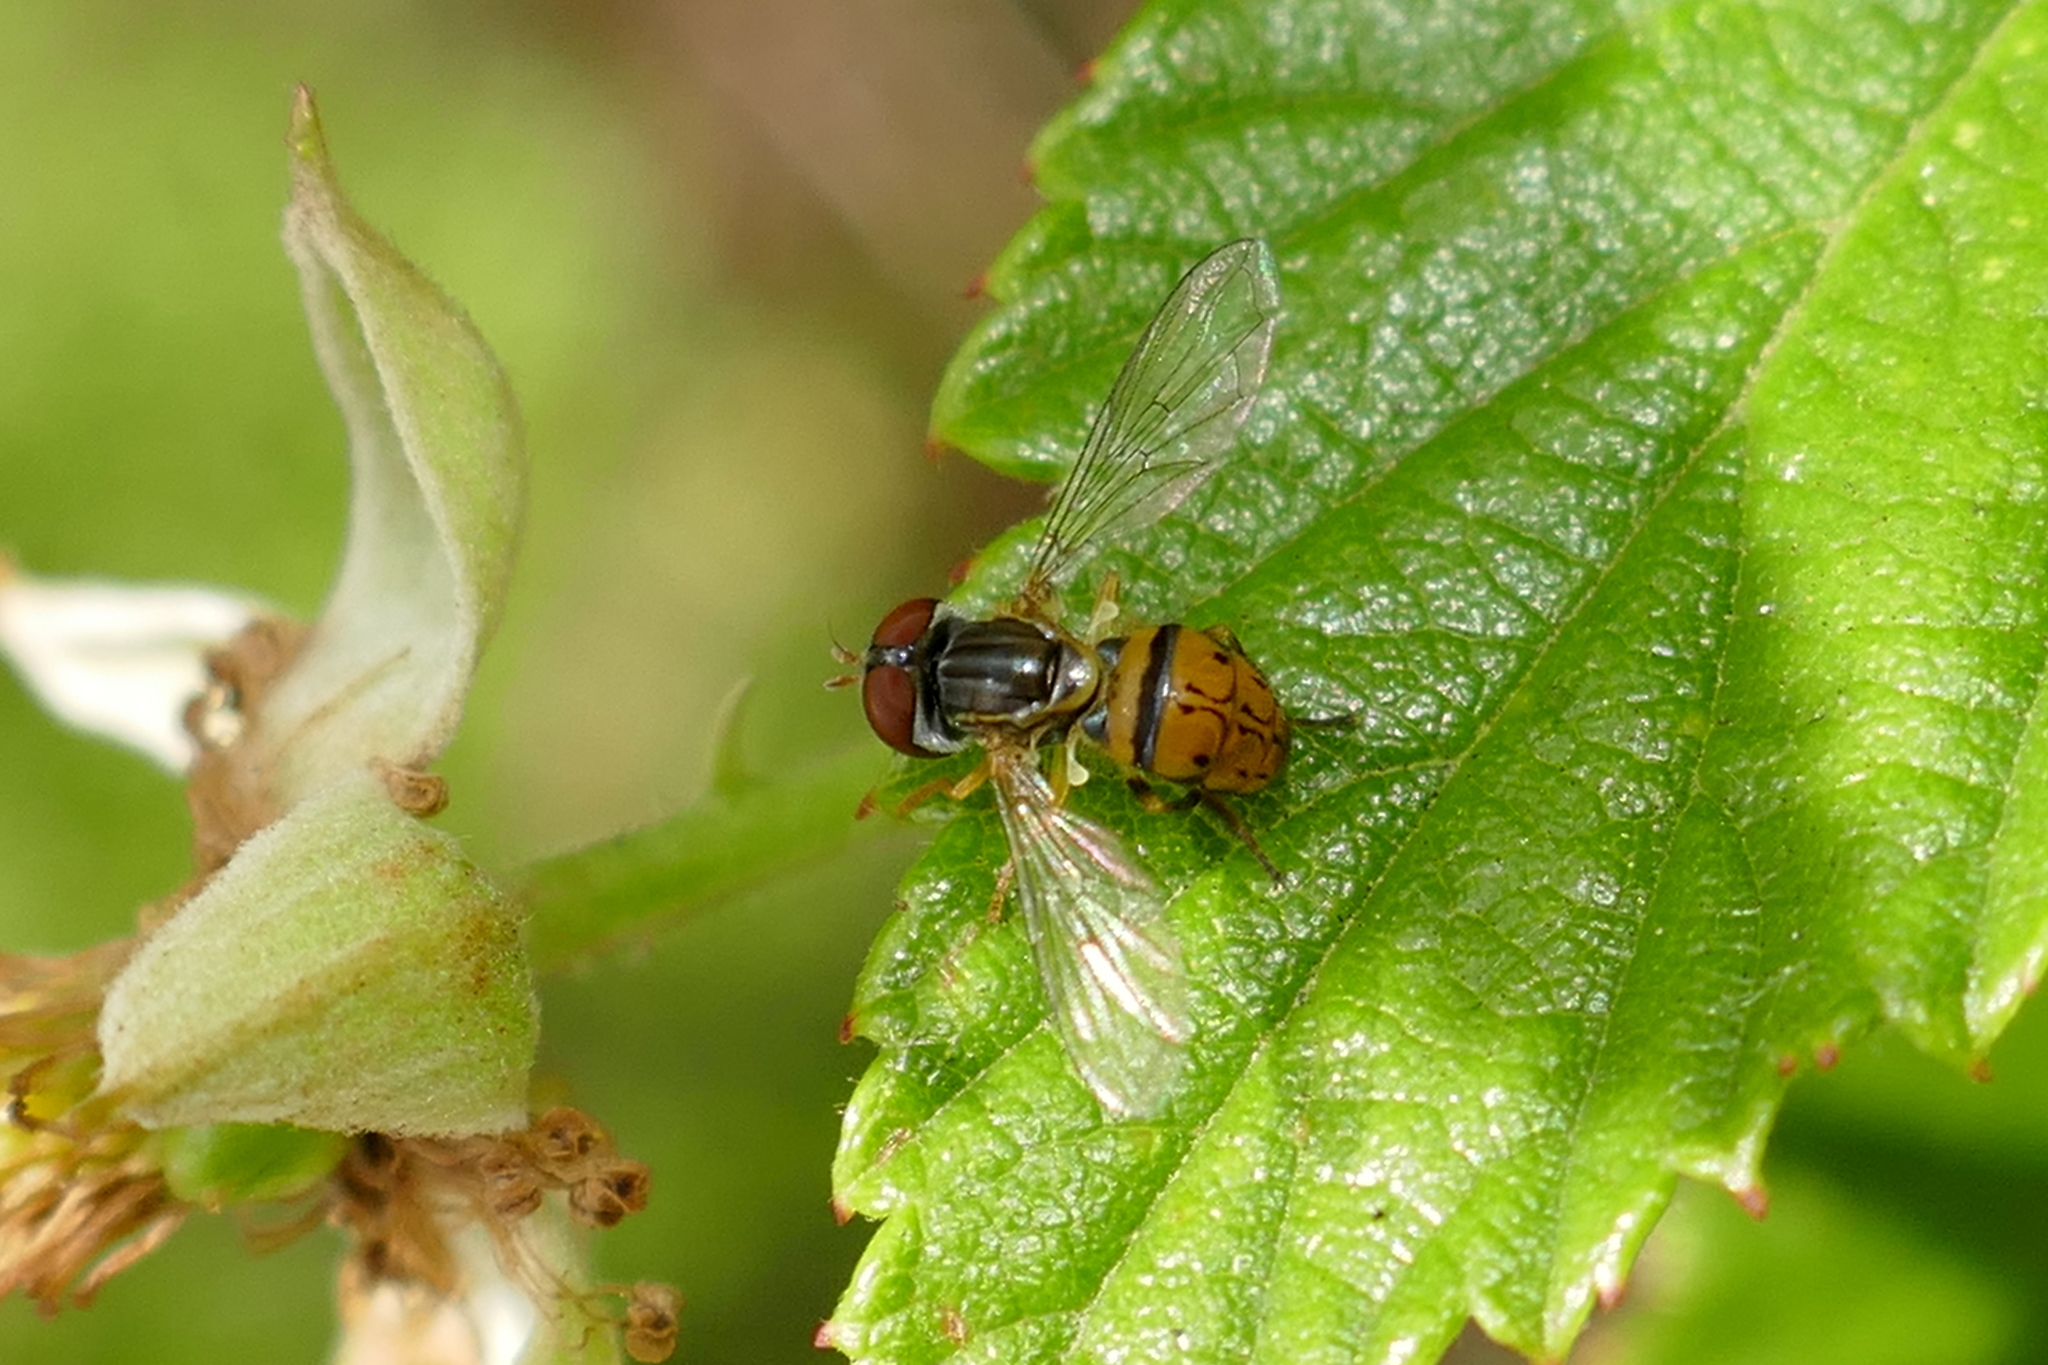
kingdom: Animalia
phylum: Arthropoda
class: Insecta
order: Diptera
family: Syrphidae
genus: Toxomerus
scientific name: Toxomerus boscii
